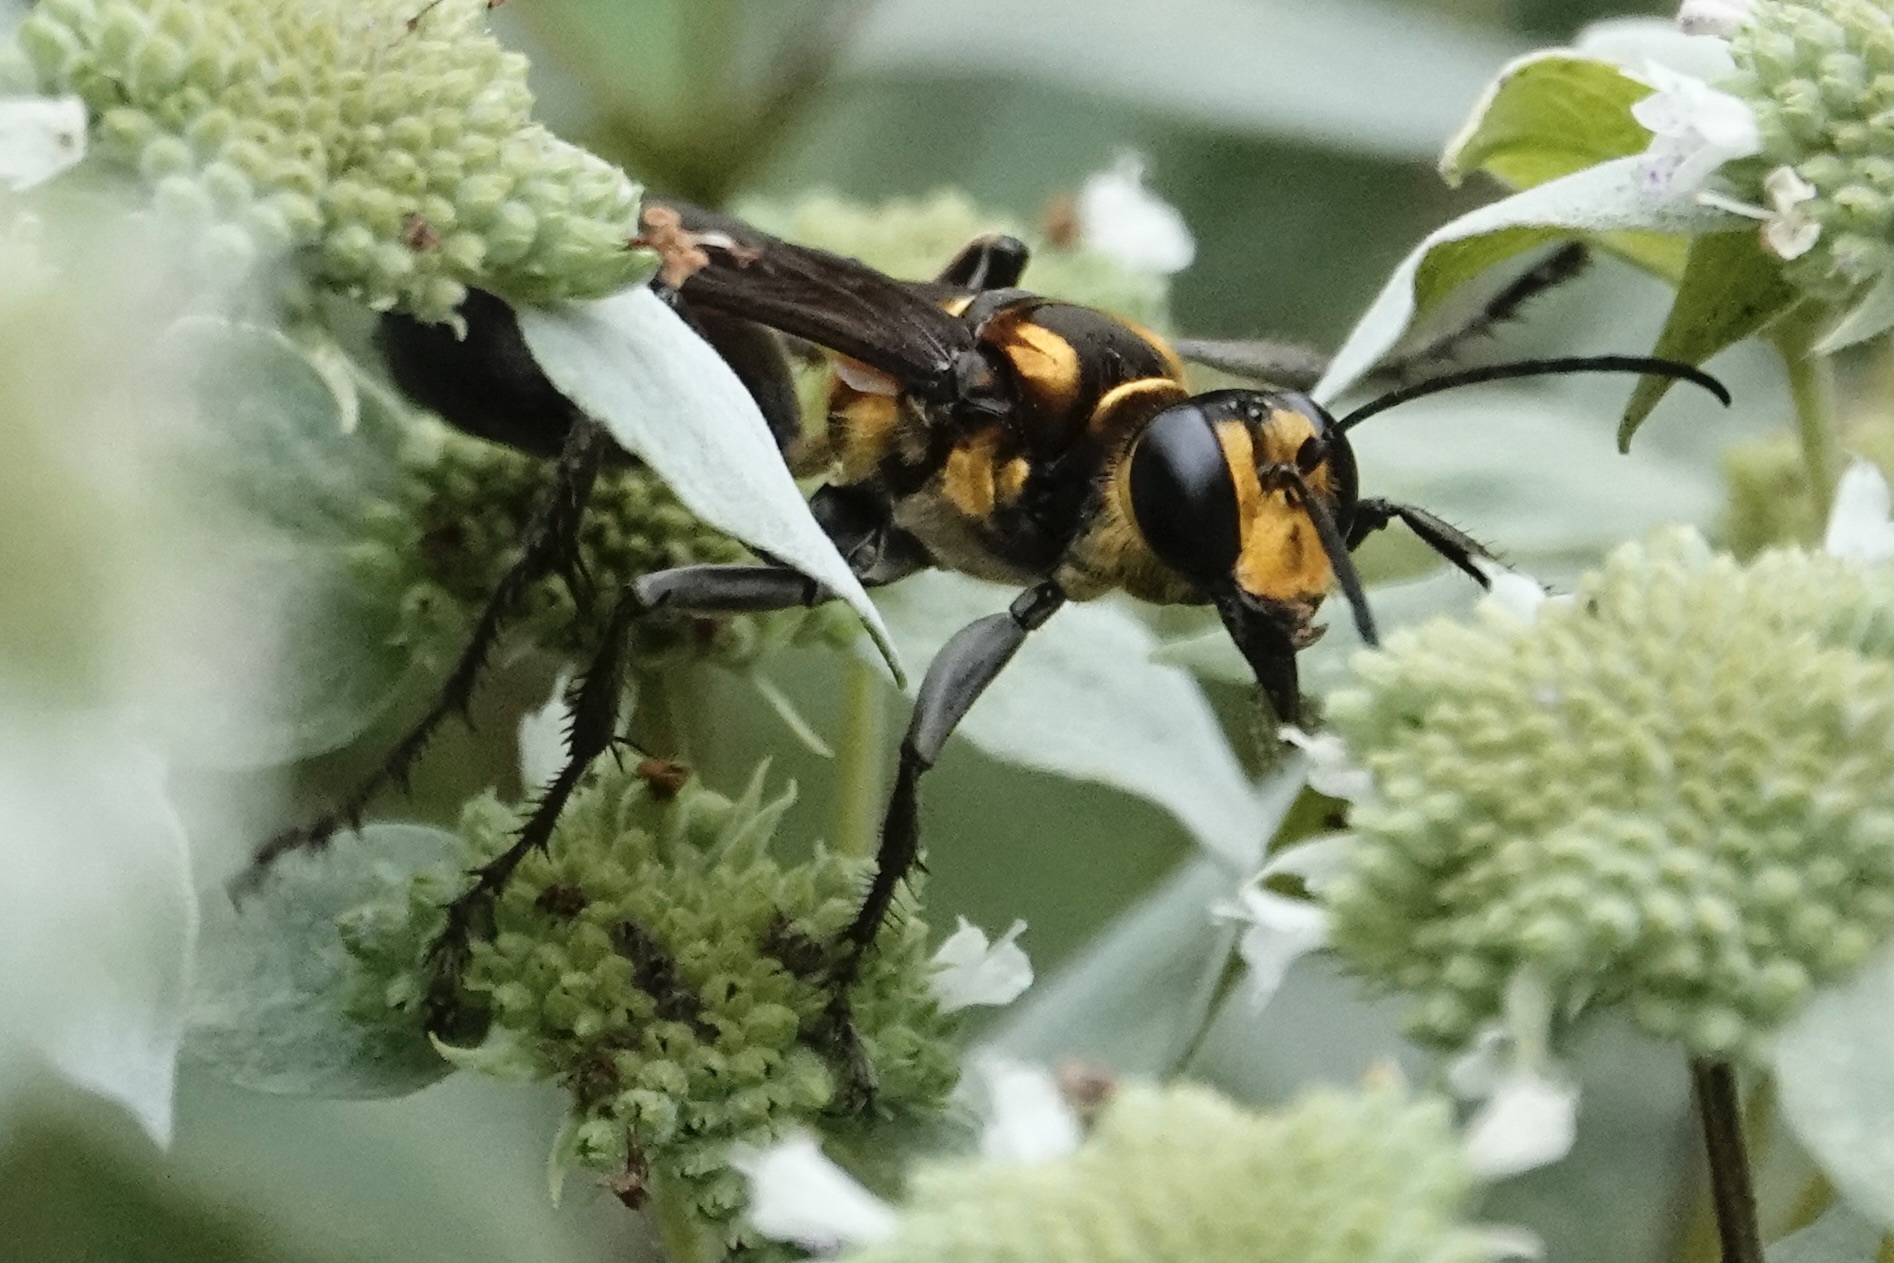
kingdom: Animalia
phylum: Arthropoda
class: Insecta
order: Hymenoptera
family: Sphecidae
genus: Sphex
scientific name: Sphex habenus
